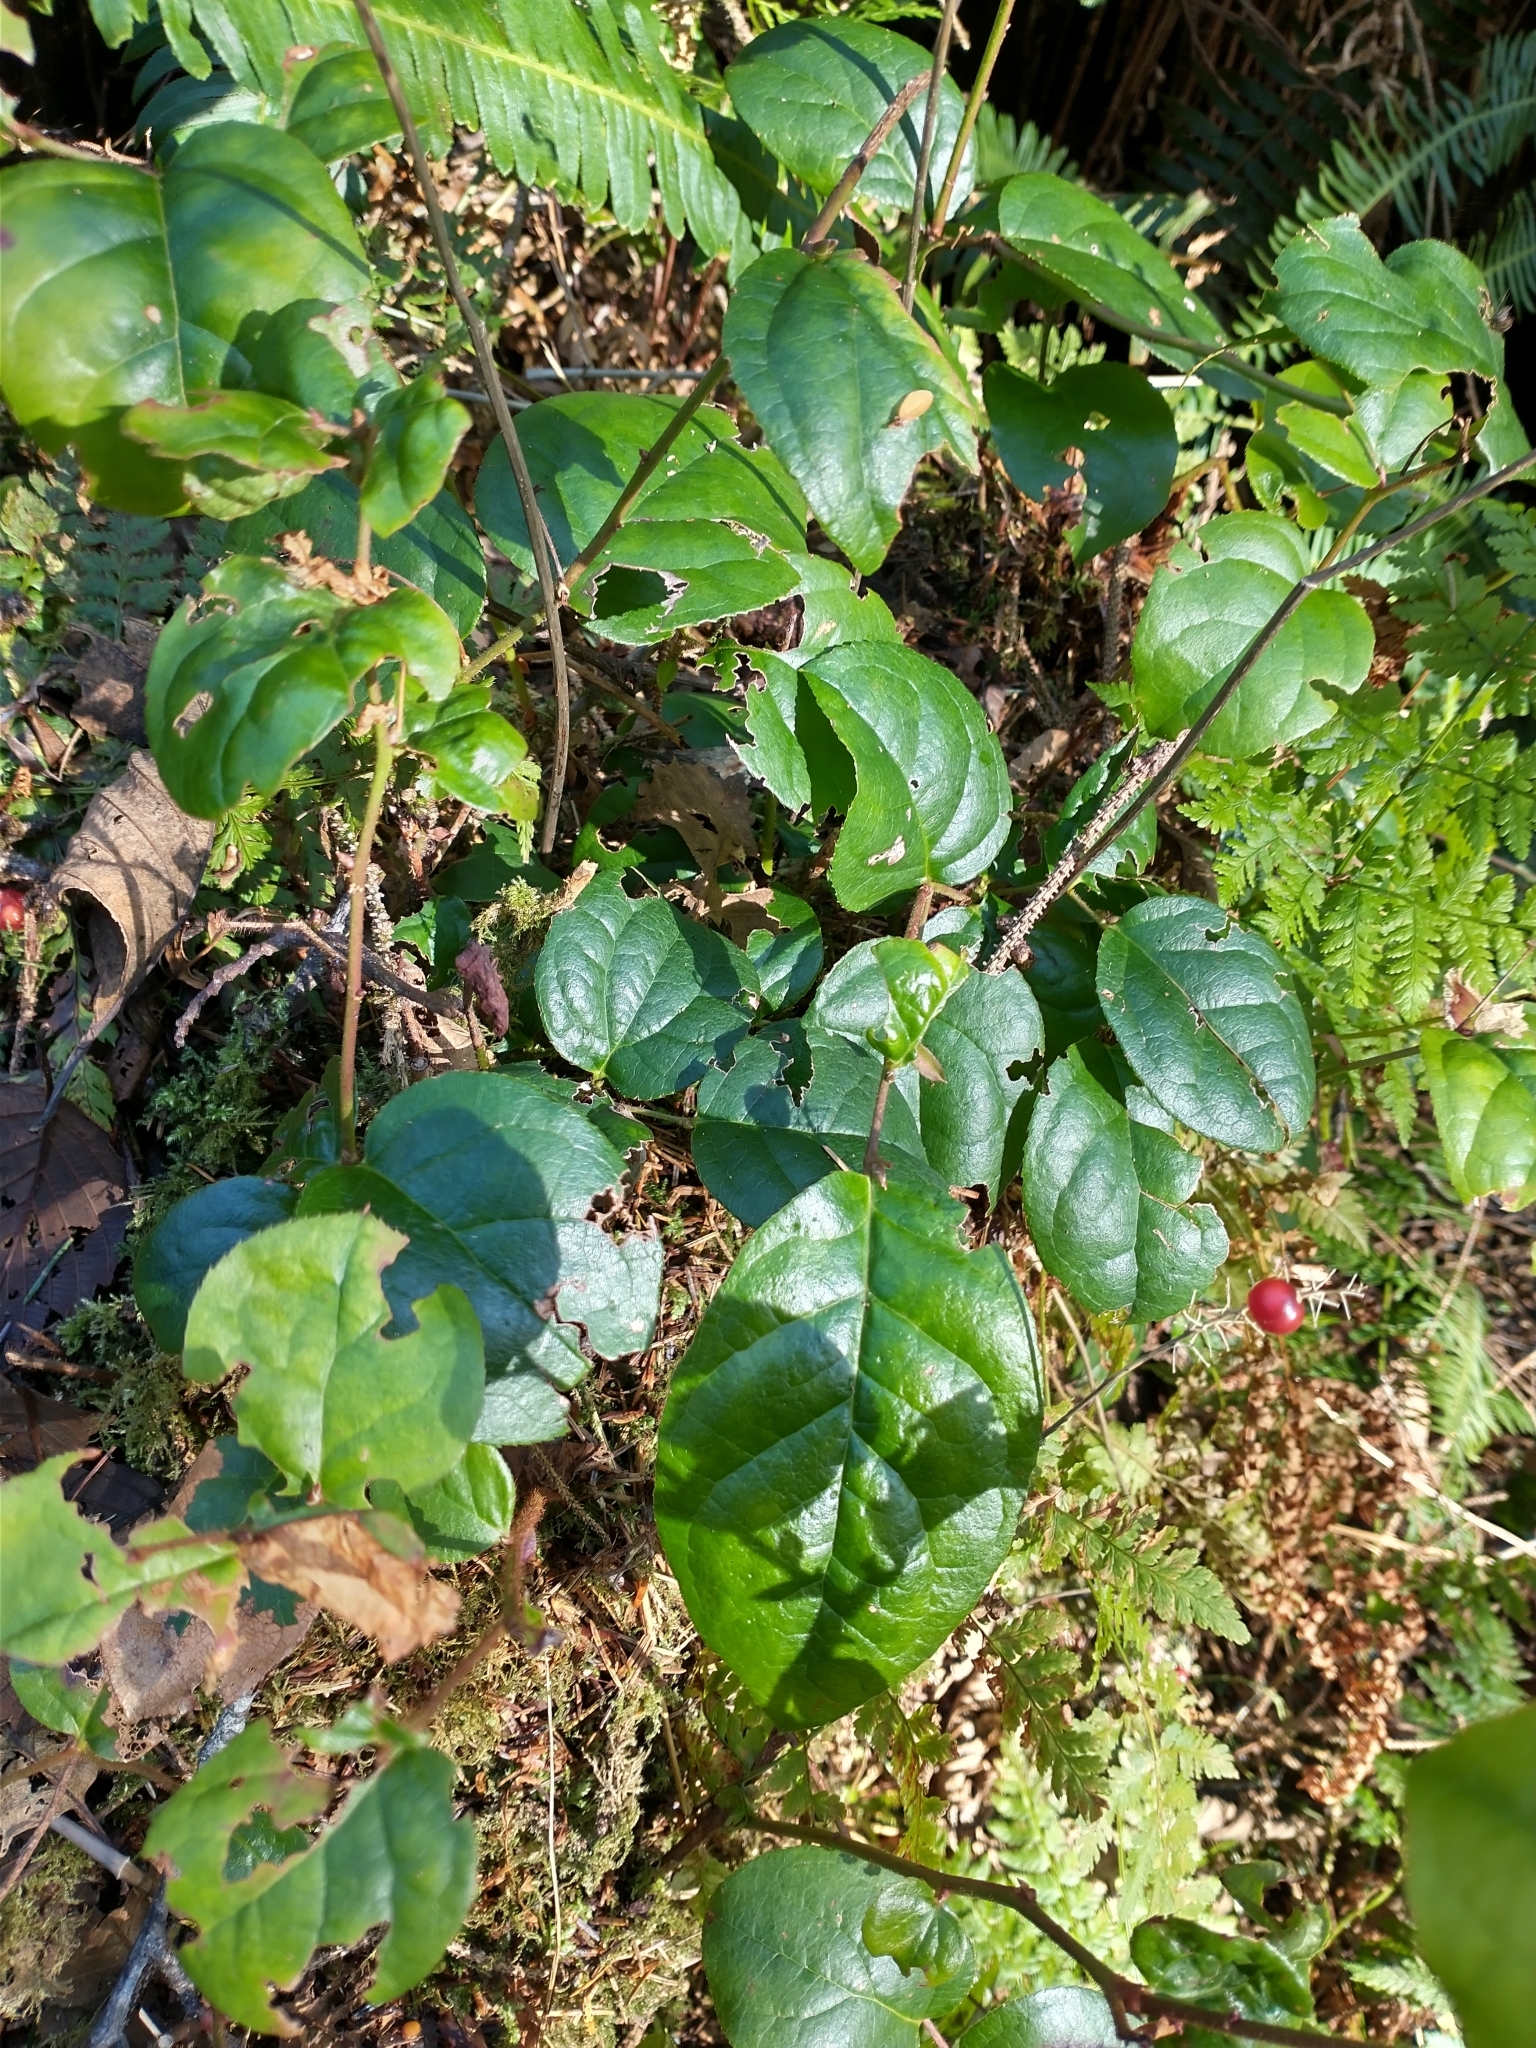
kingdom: Plantae
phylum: Tracheophyta
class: Magnoliopsida
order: Ericales
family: Ericaceae
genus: Gaultheria
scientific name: Gaultheria shallon
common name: Shallon
